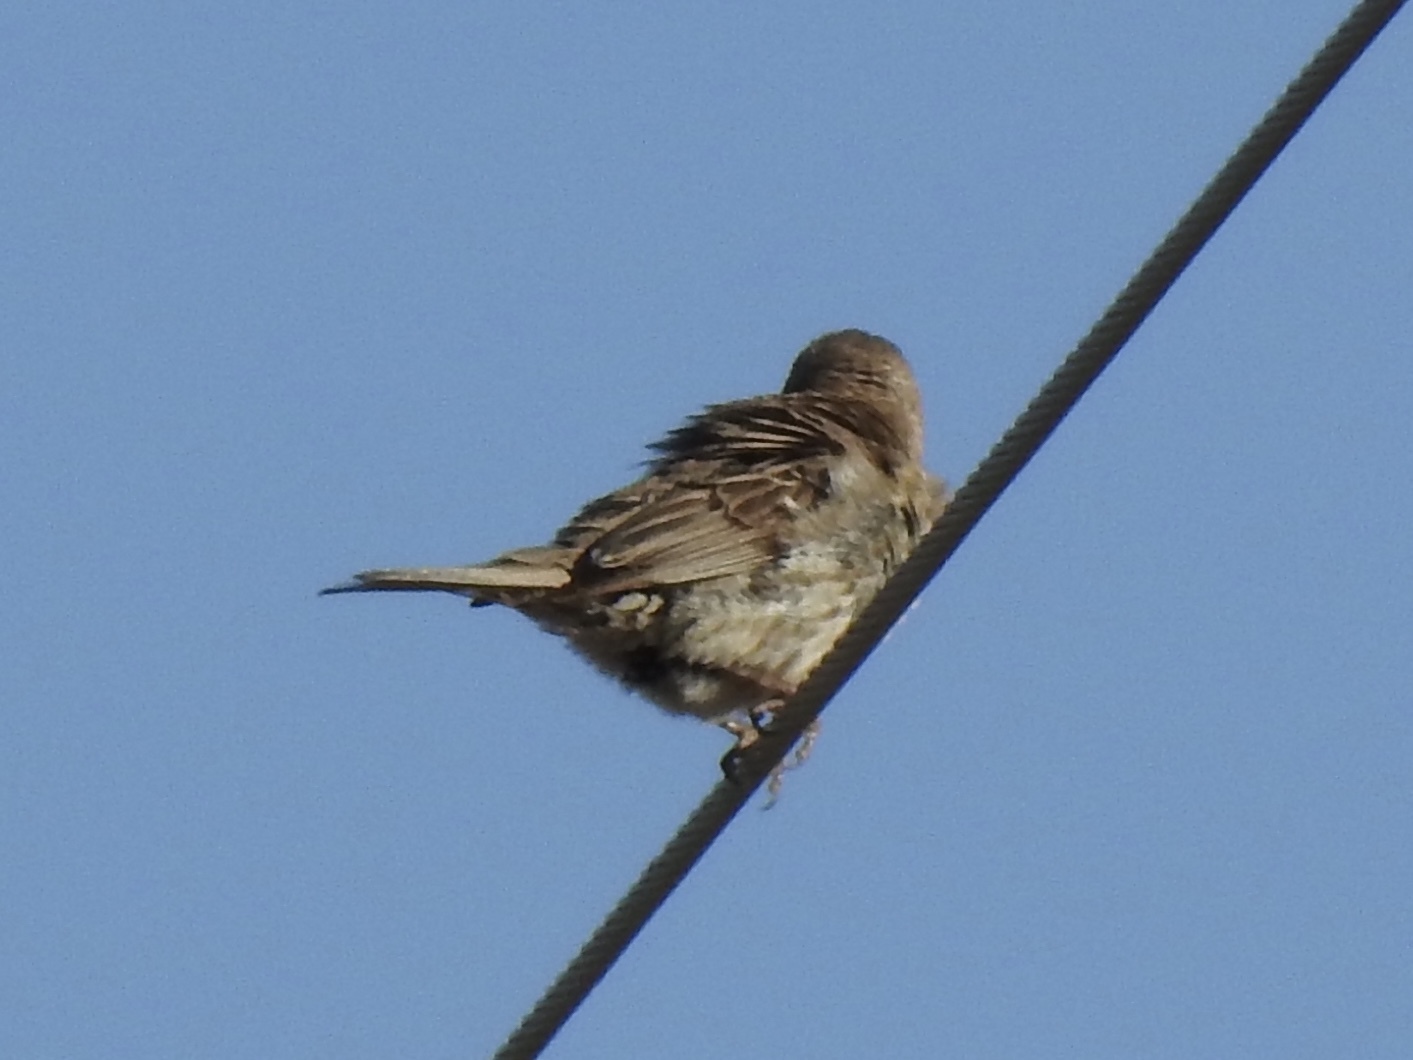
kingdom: Animalia
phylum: Chordata
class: Aves
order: Passeriformes
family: Fringillidae
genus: Haemorhous
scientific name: Haemorhous mexicanus
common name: House finch
